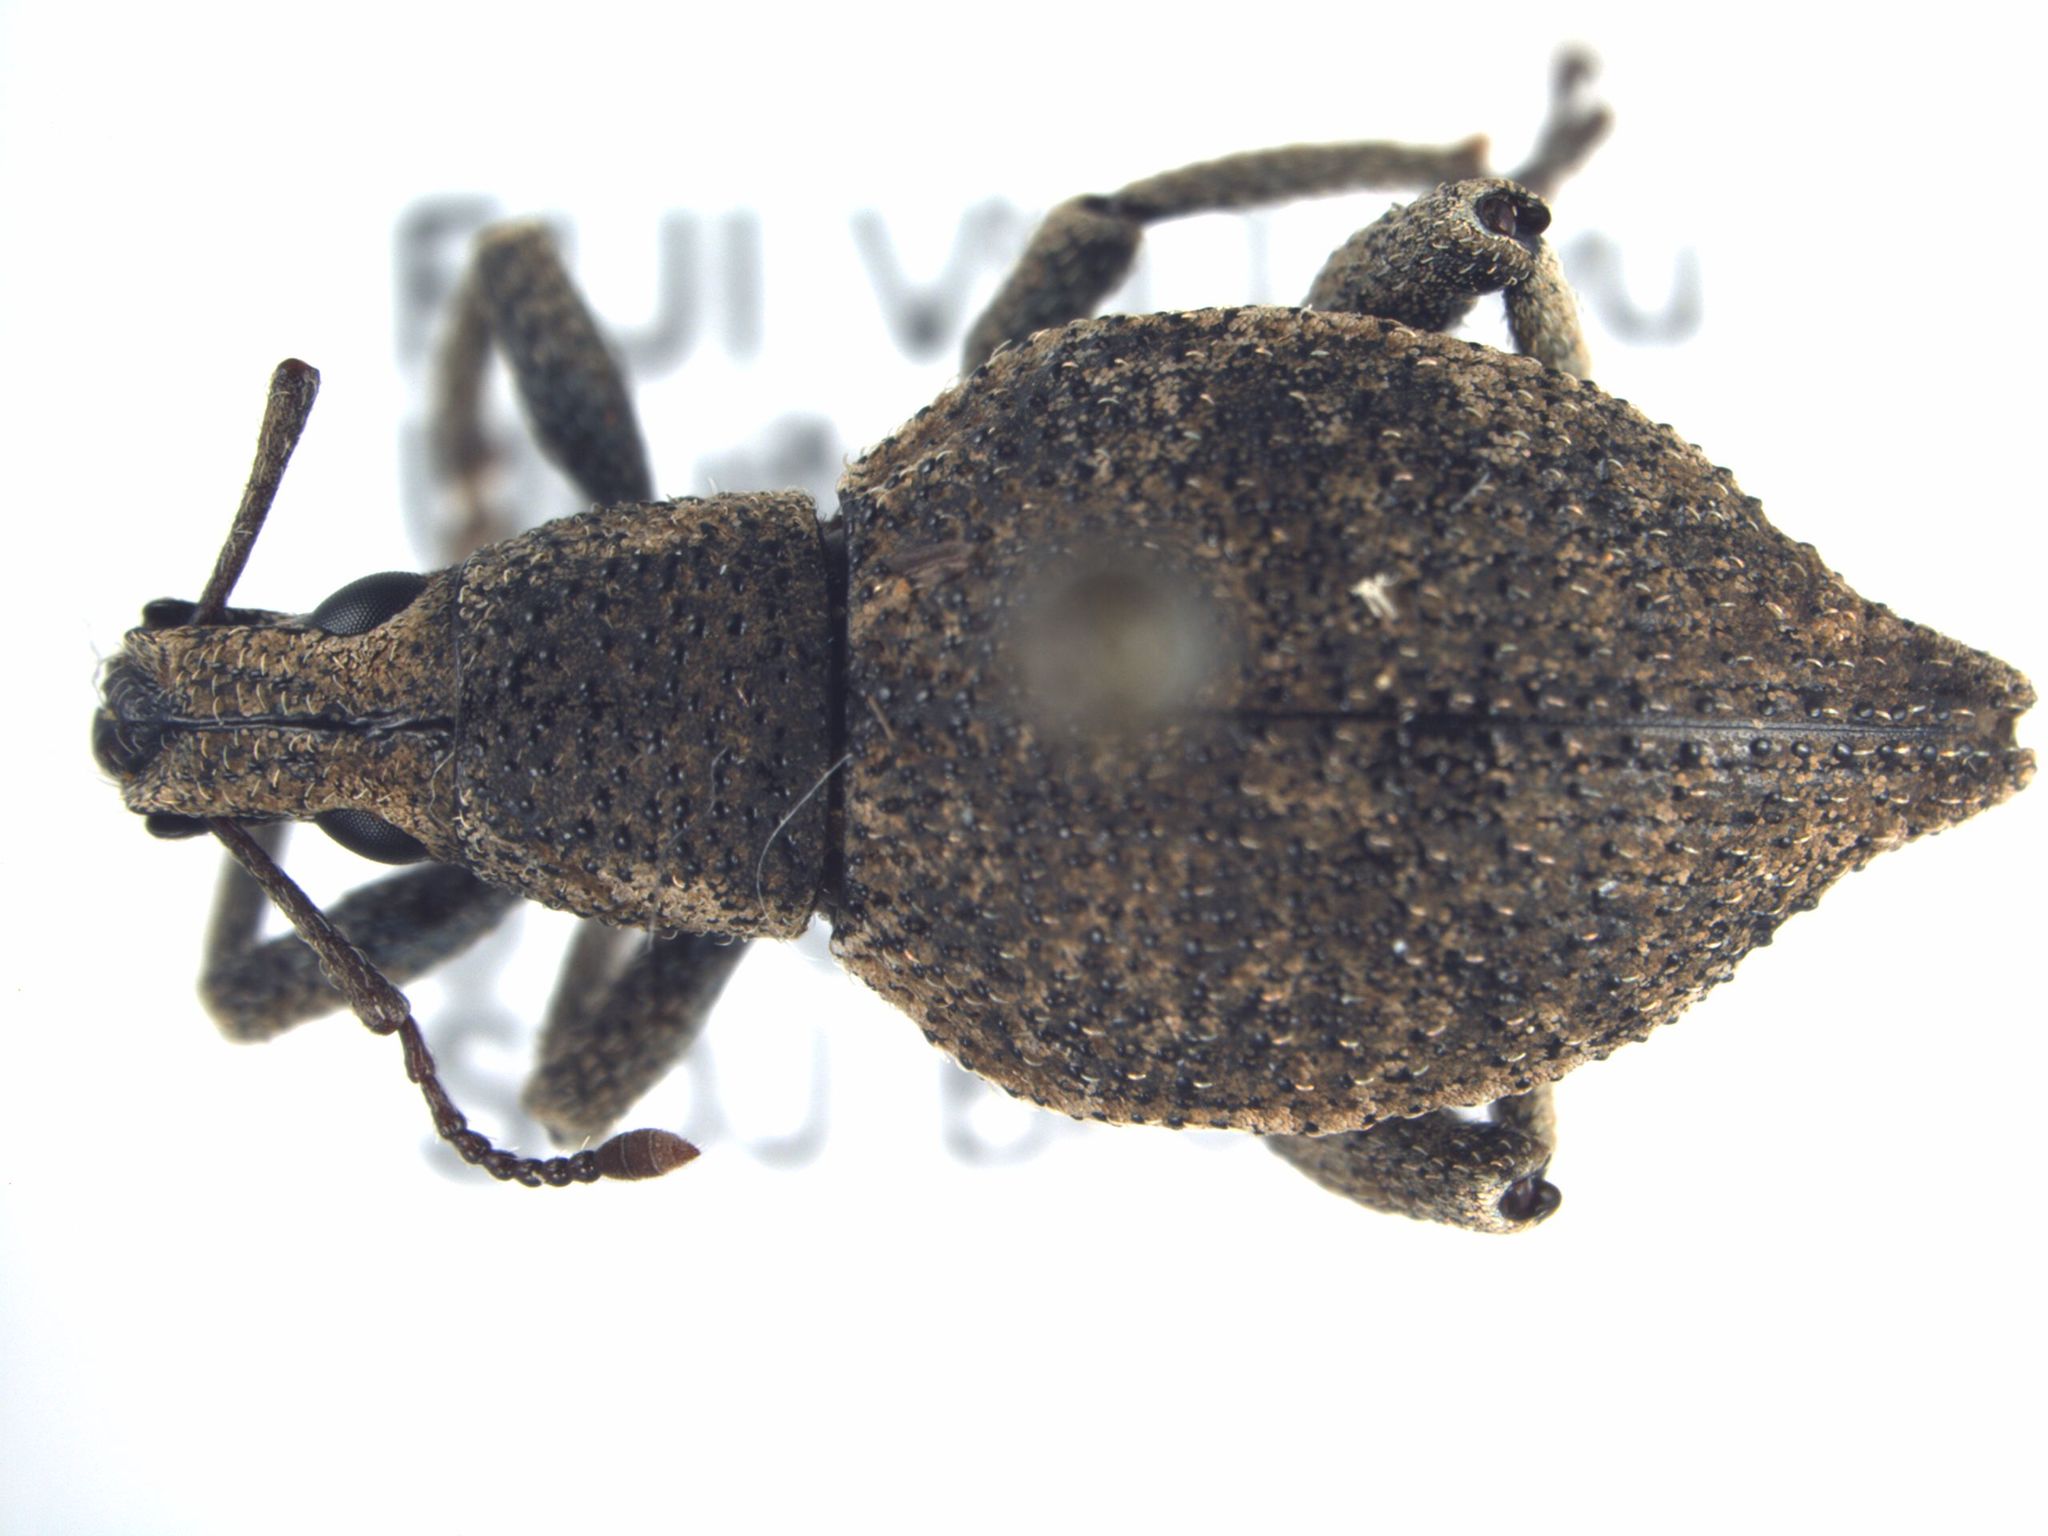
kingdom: Animalia
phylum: Arthropoda
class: Insecta
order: Coleoptera
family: Curculionidae
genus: Elytrurus
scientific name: Elytrurus griseus
